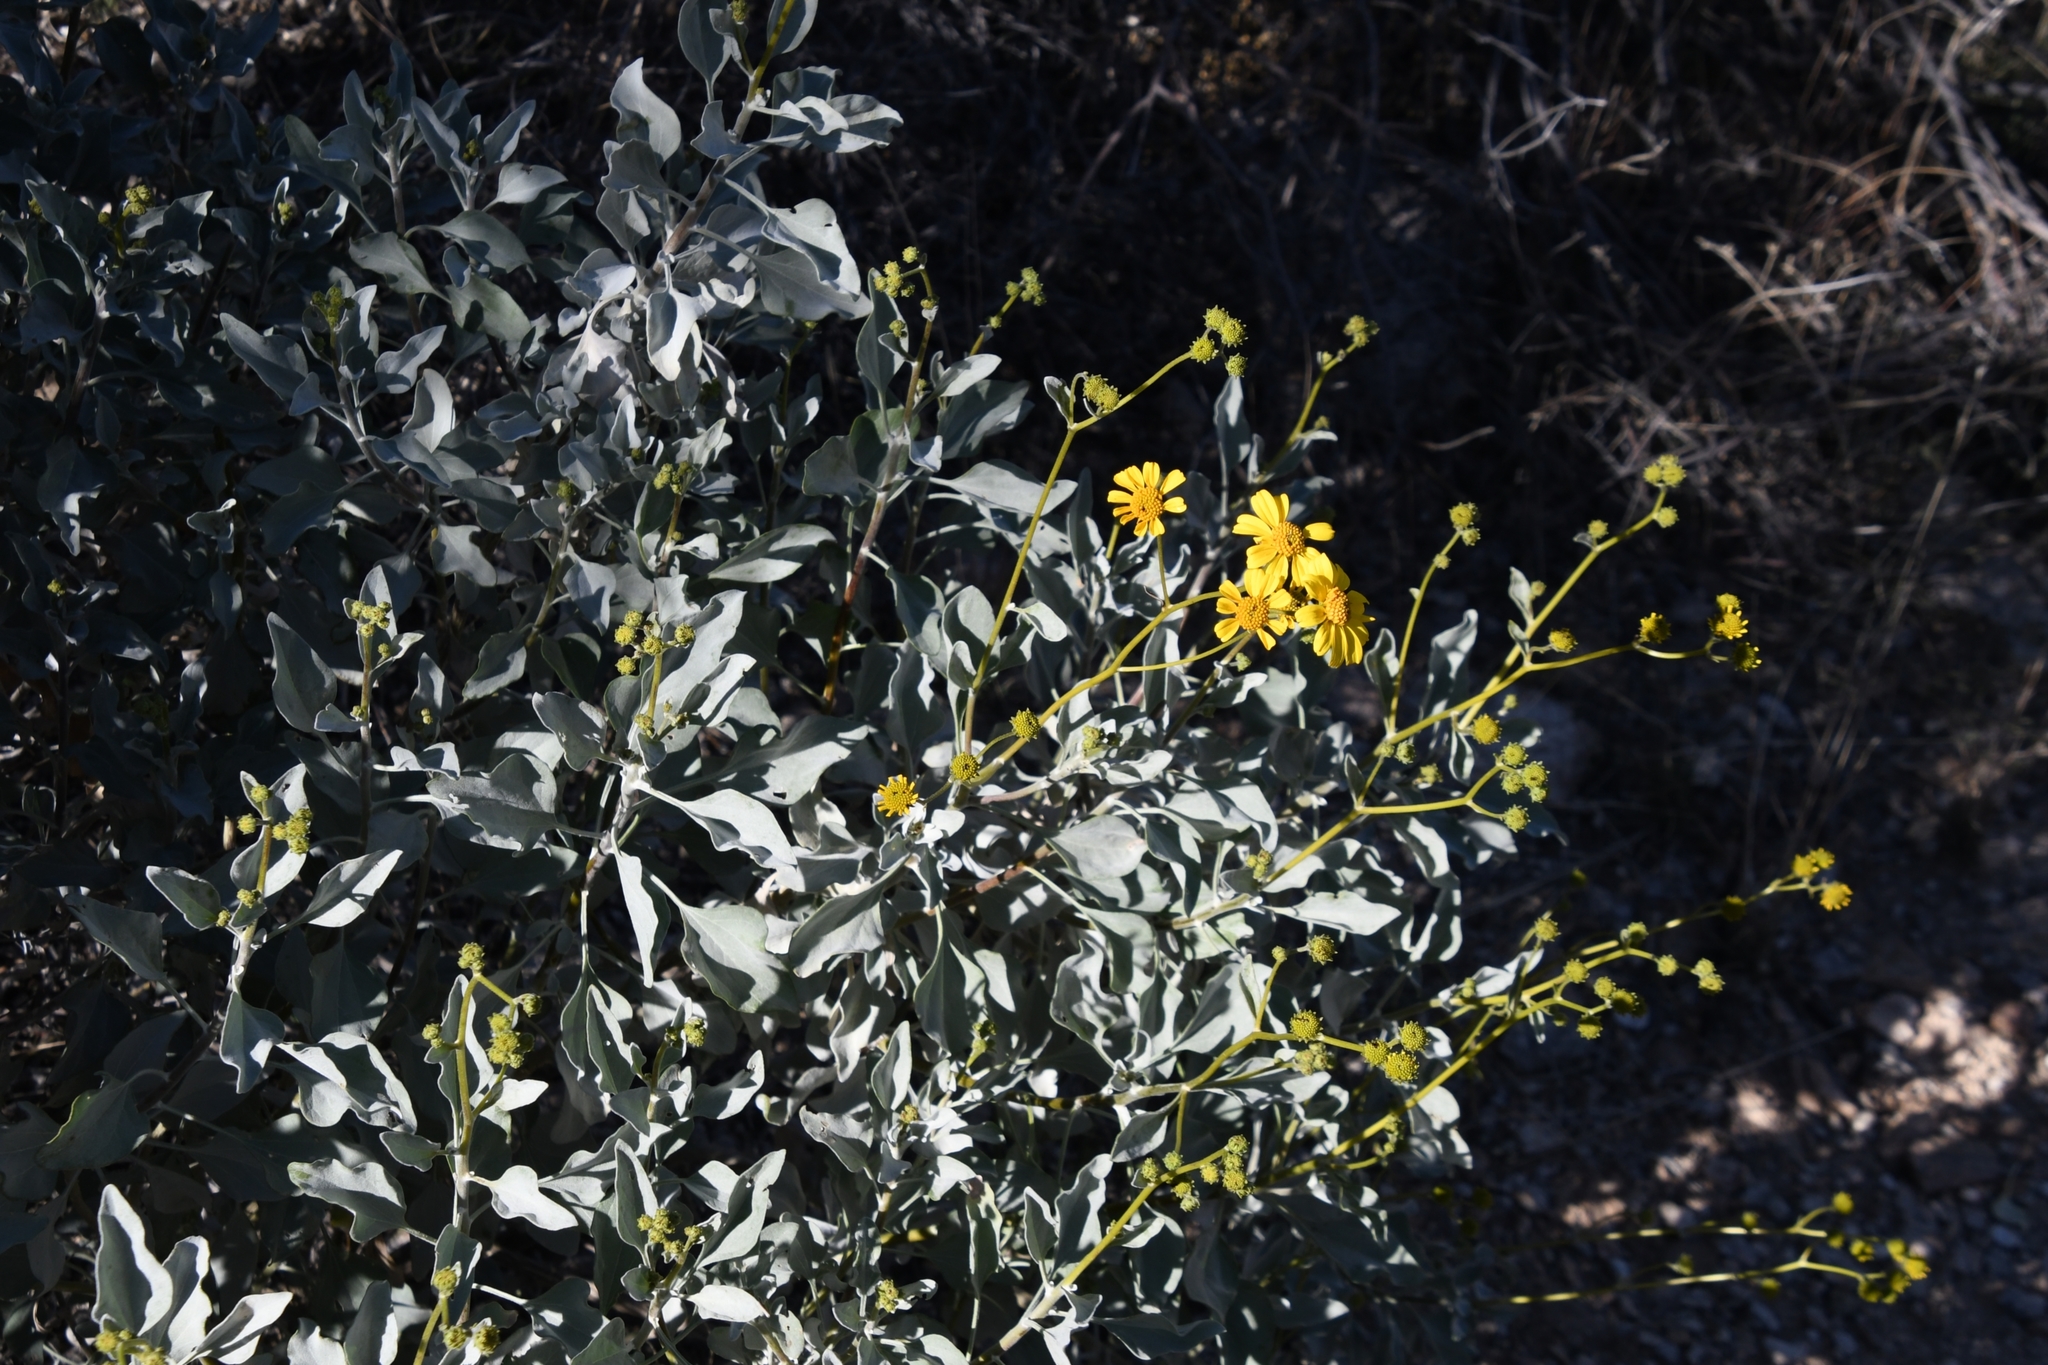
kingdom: Plantae
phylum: Tracheophyta
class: Magnoliopsida
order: Asterales
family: Asteraceae
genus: Encelia
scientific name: Encelia farinosa
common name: Brittlebush
